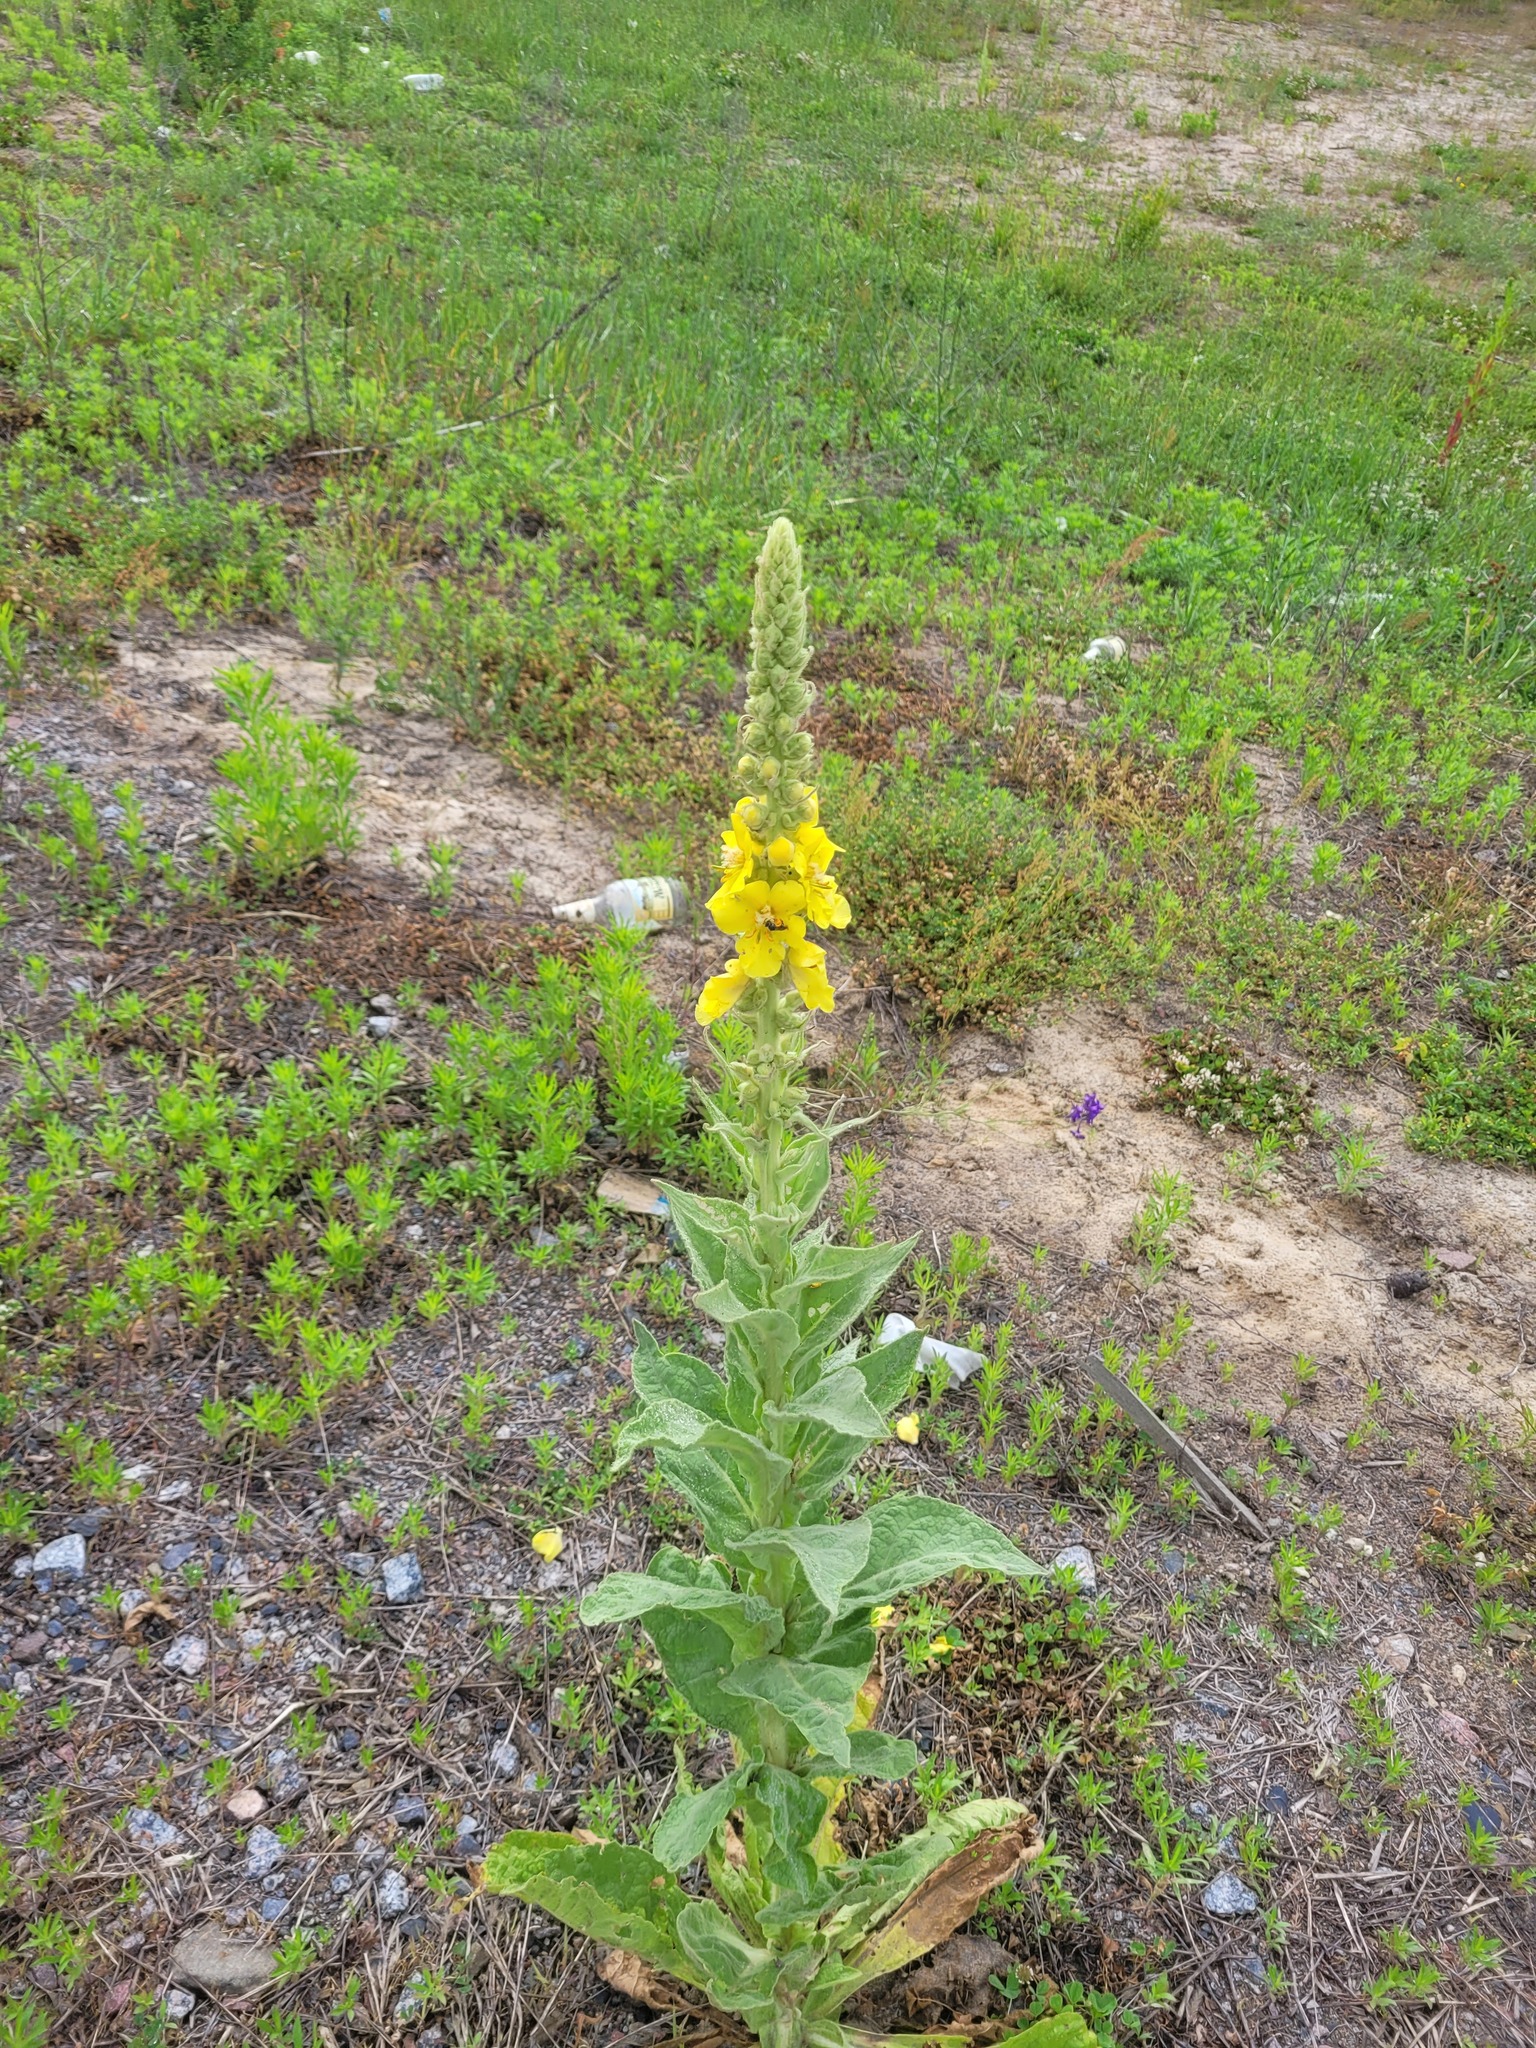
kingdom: Plantae
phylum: Tracheophyta
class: Magnoliopsida
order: Lamiales
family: Scrophulariaceae
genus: Verbascum
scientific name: Verbascum densiflorum
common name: Dense-flowered mullein
